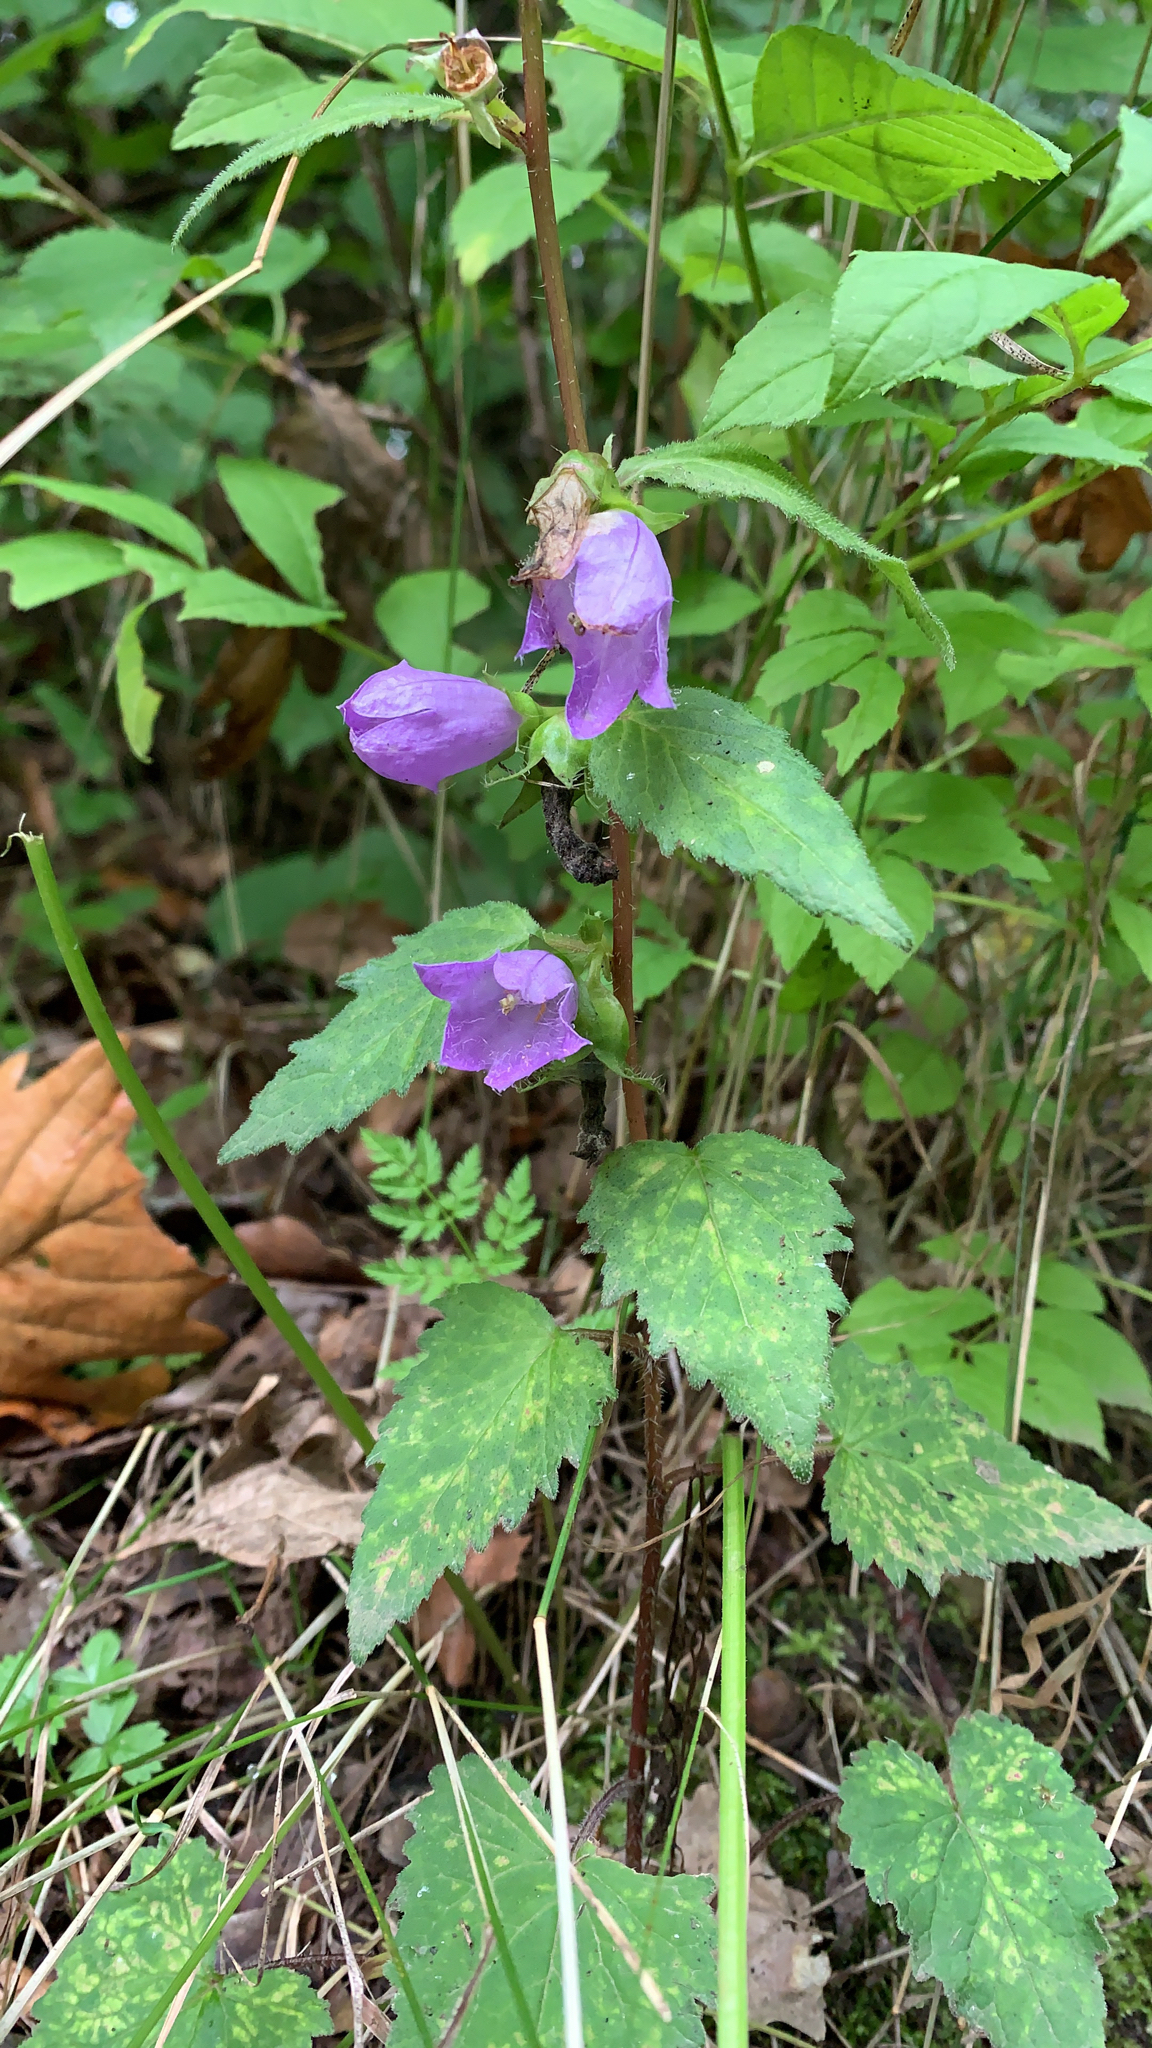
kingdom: Plantae
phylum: Tracheophyta
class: Magnoliopsida
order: Asterales
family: Campanulaceae
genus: Campanula
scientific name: Campanula trachelium
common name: Nettle-leaved bellflower
